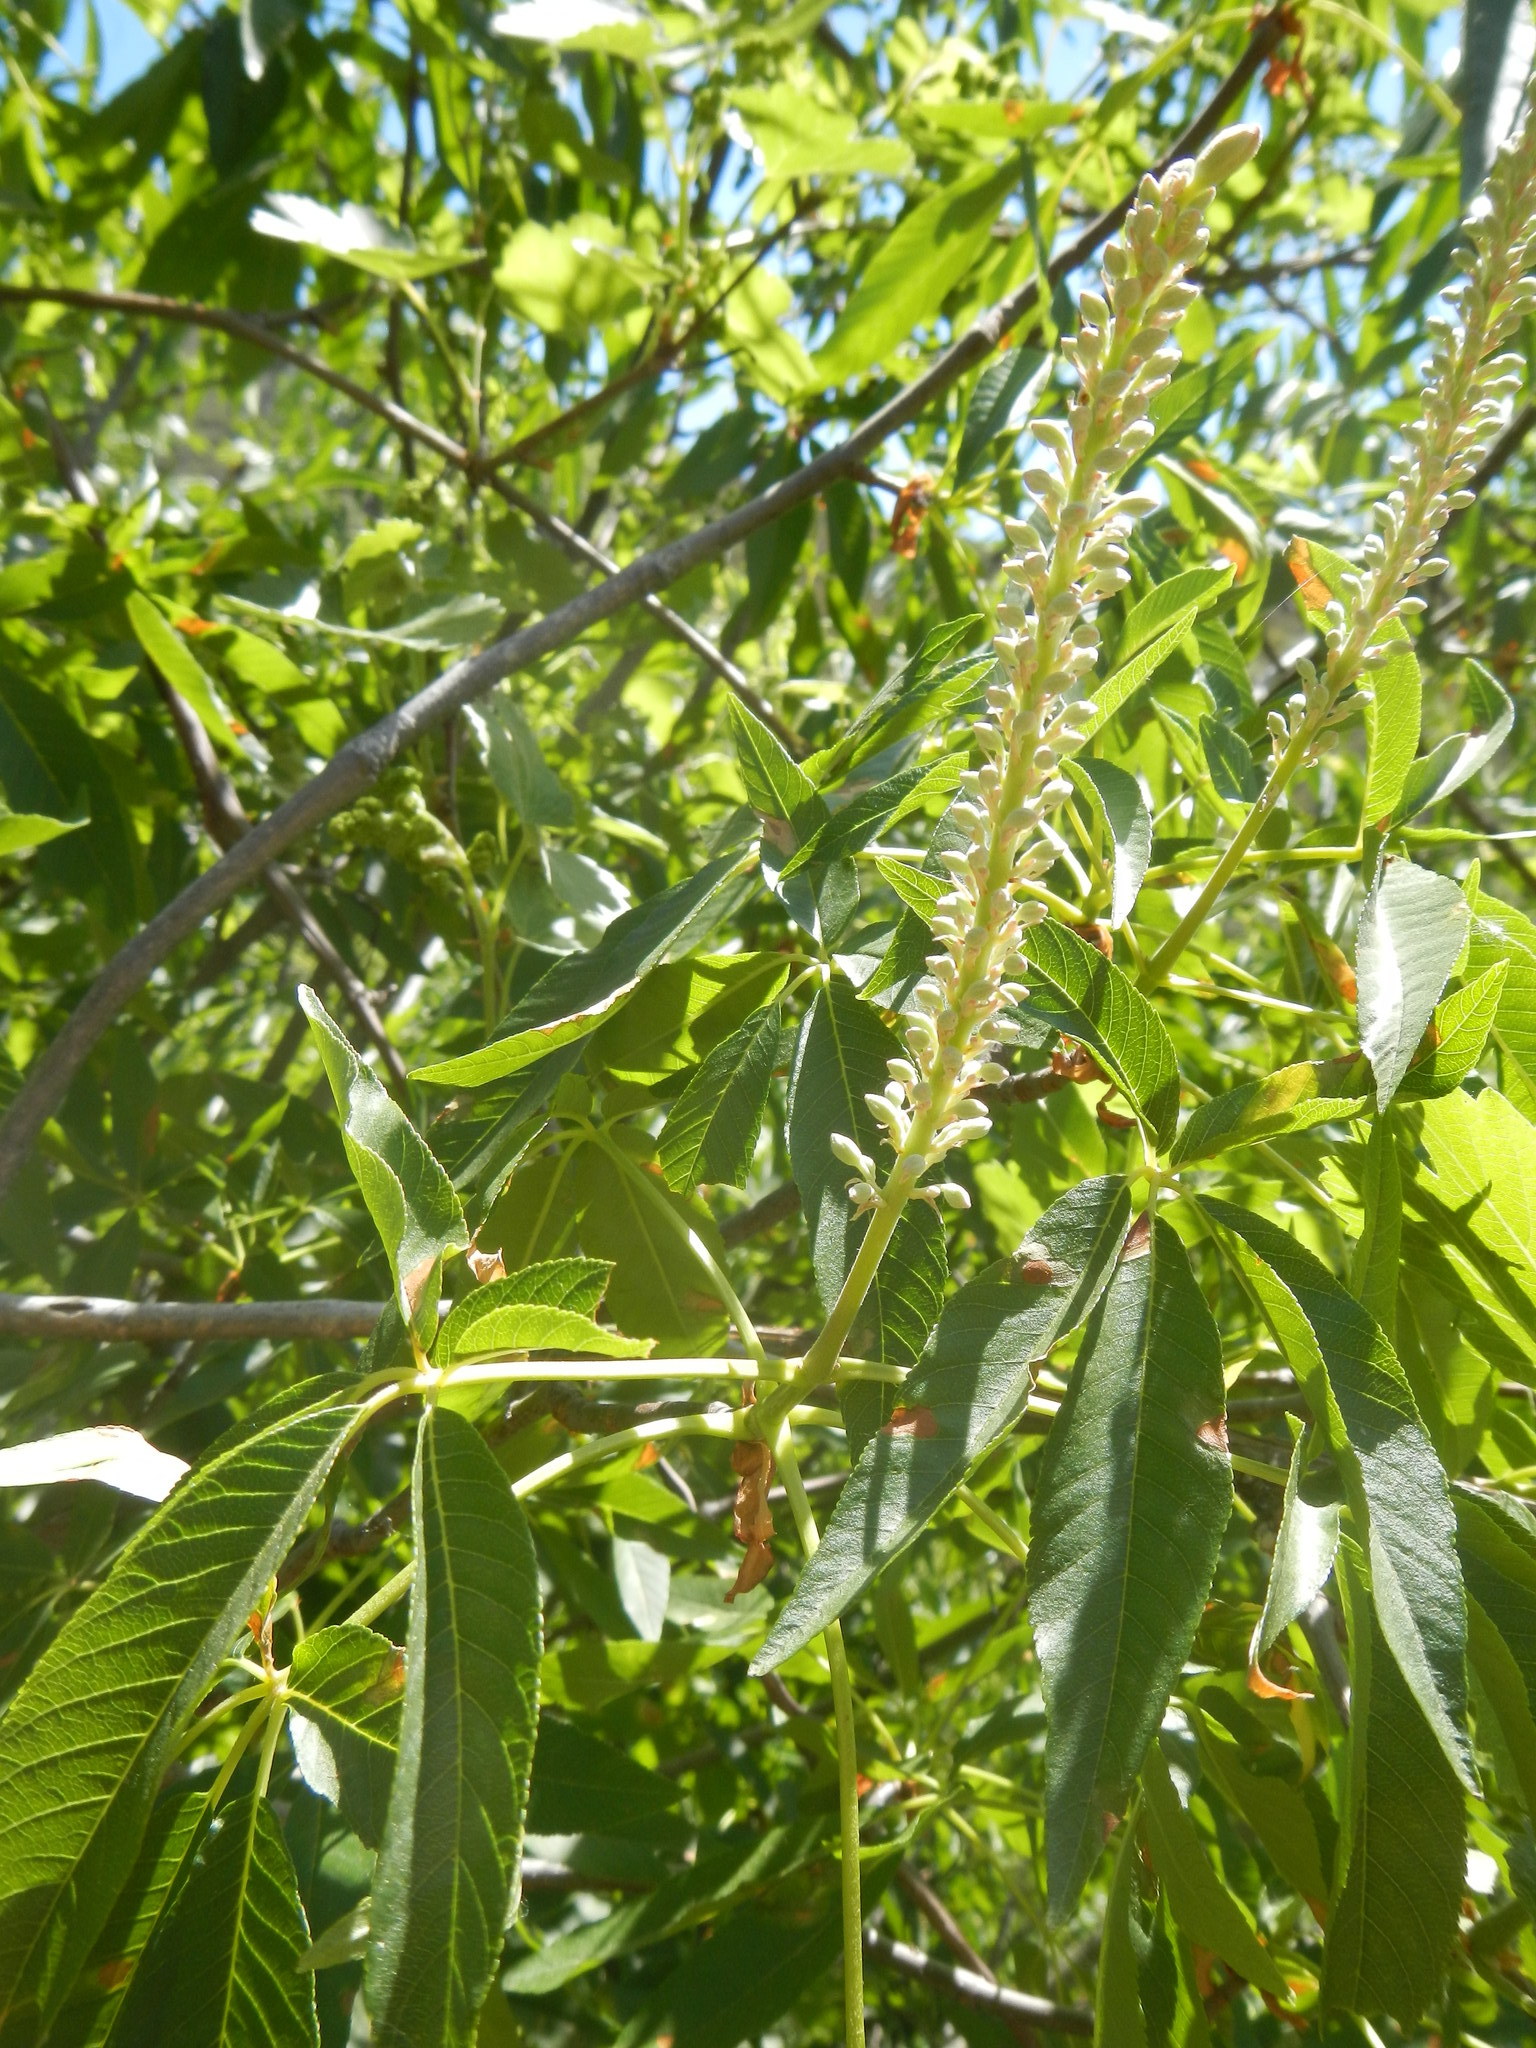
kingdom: Plantae
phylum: Tracheophyta
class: Magnoliopsida
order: Sapindales
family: Sapindaceae
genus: Aesculus
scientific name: Aesculus californica
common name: California buckeye
